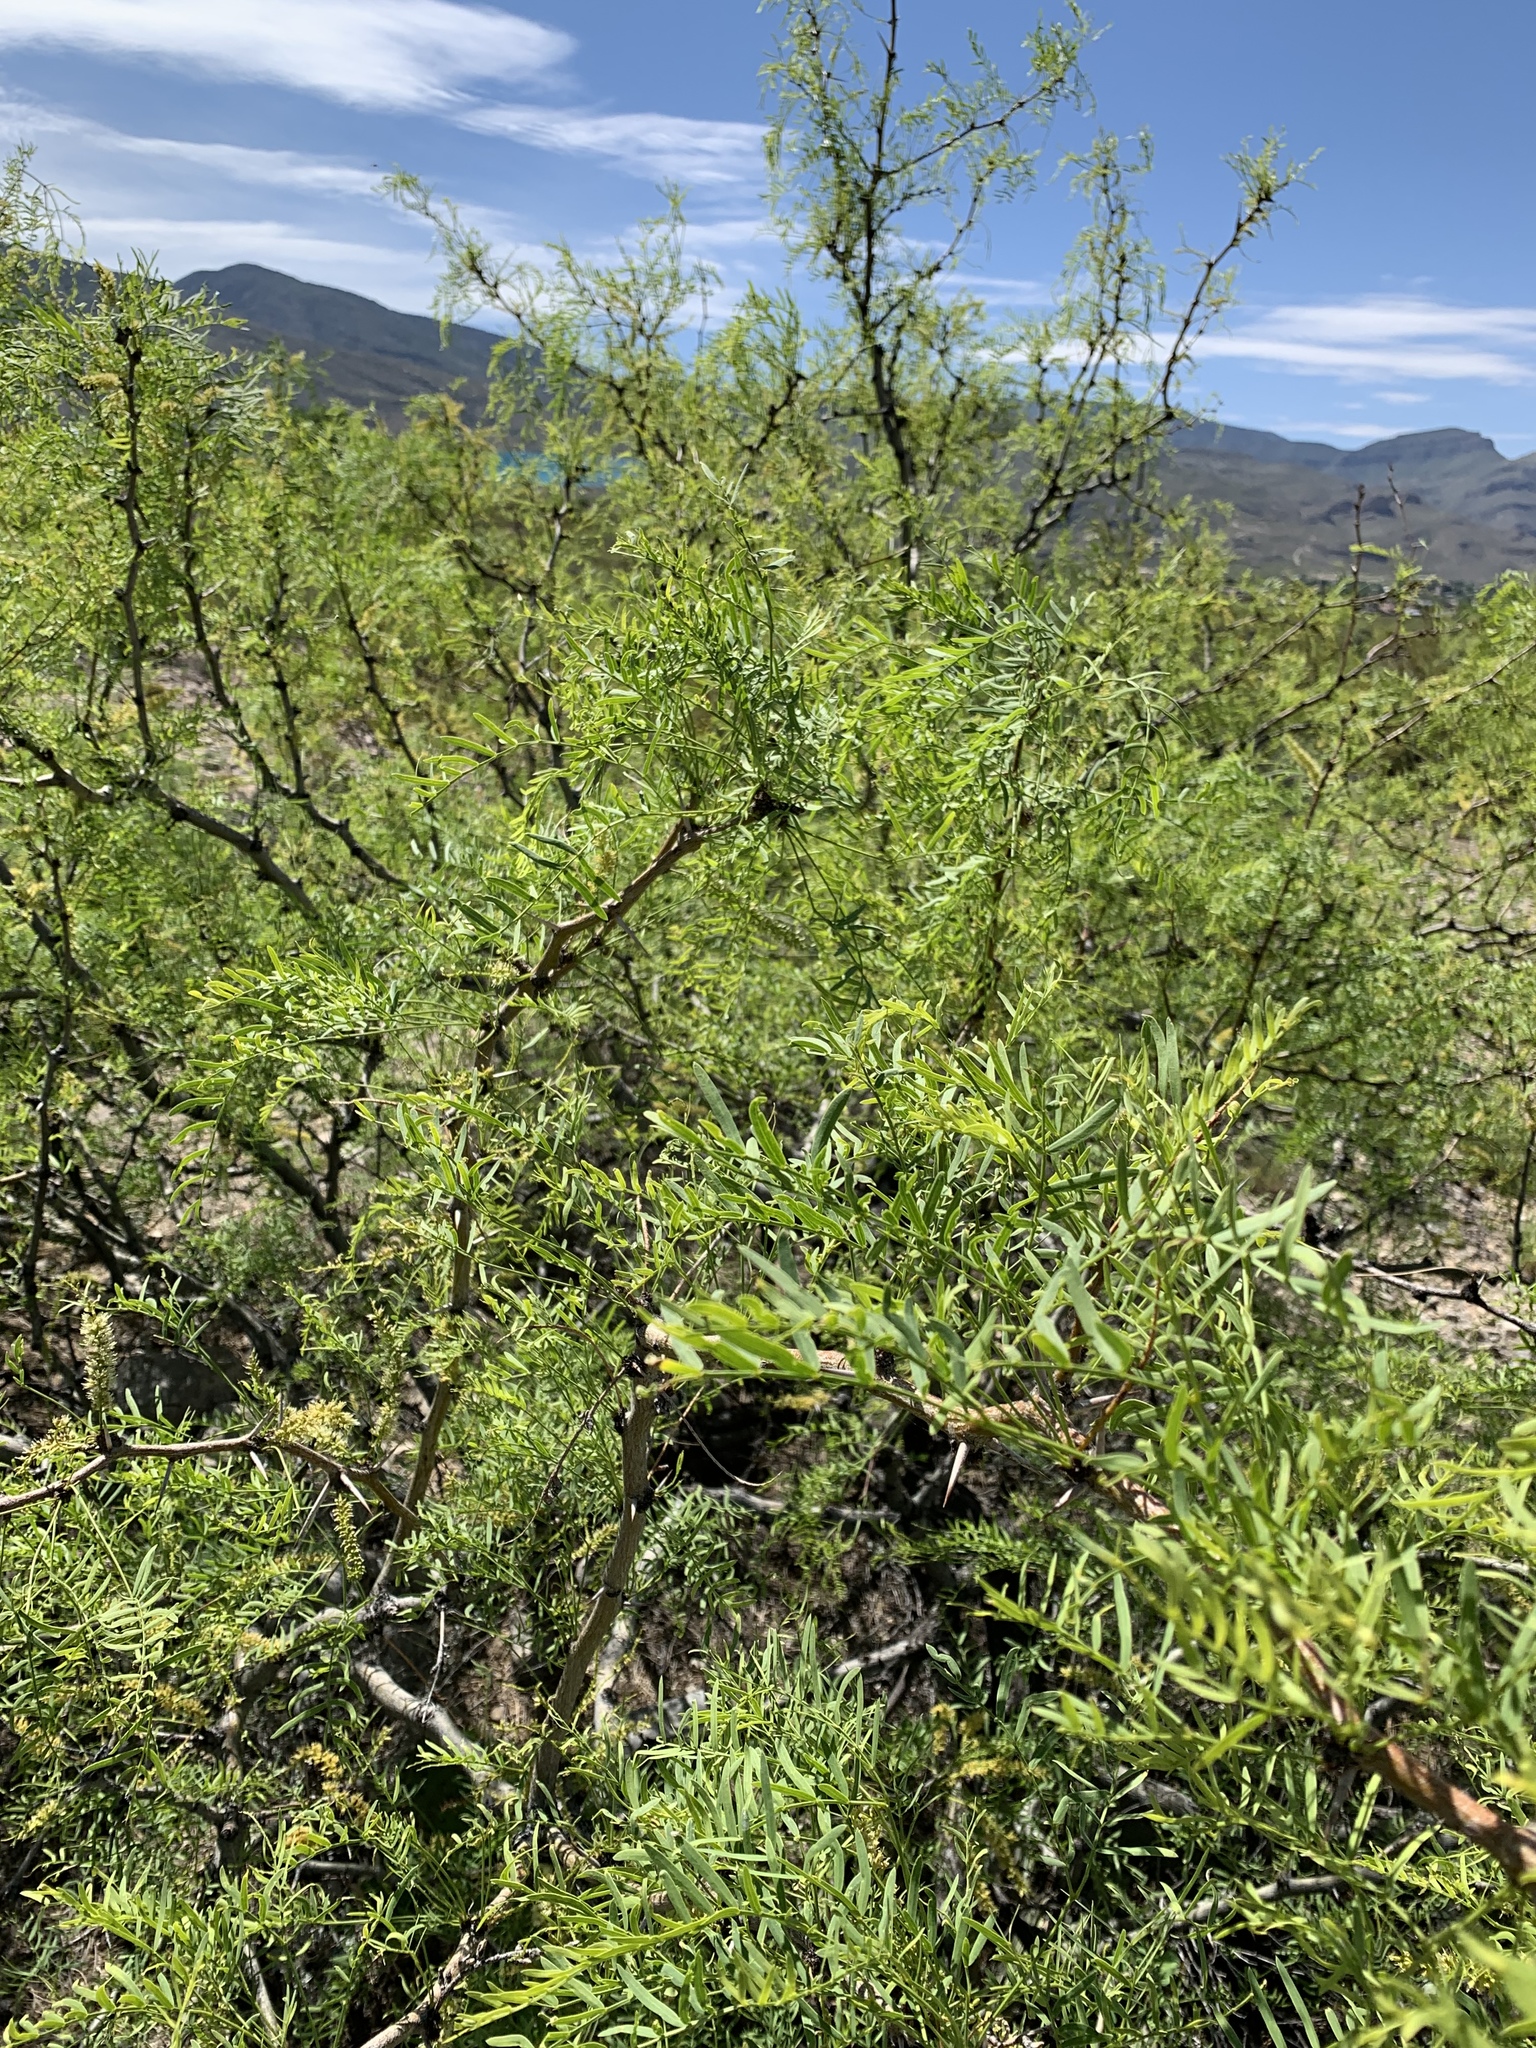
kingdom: Plantae
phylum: Tracheophyta
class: Magnoliopsida
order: Fabales
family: Fabaceae
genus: Prosopis
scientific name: Prosopis glandulosa
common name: Honey mesquite
